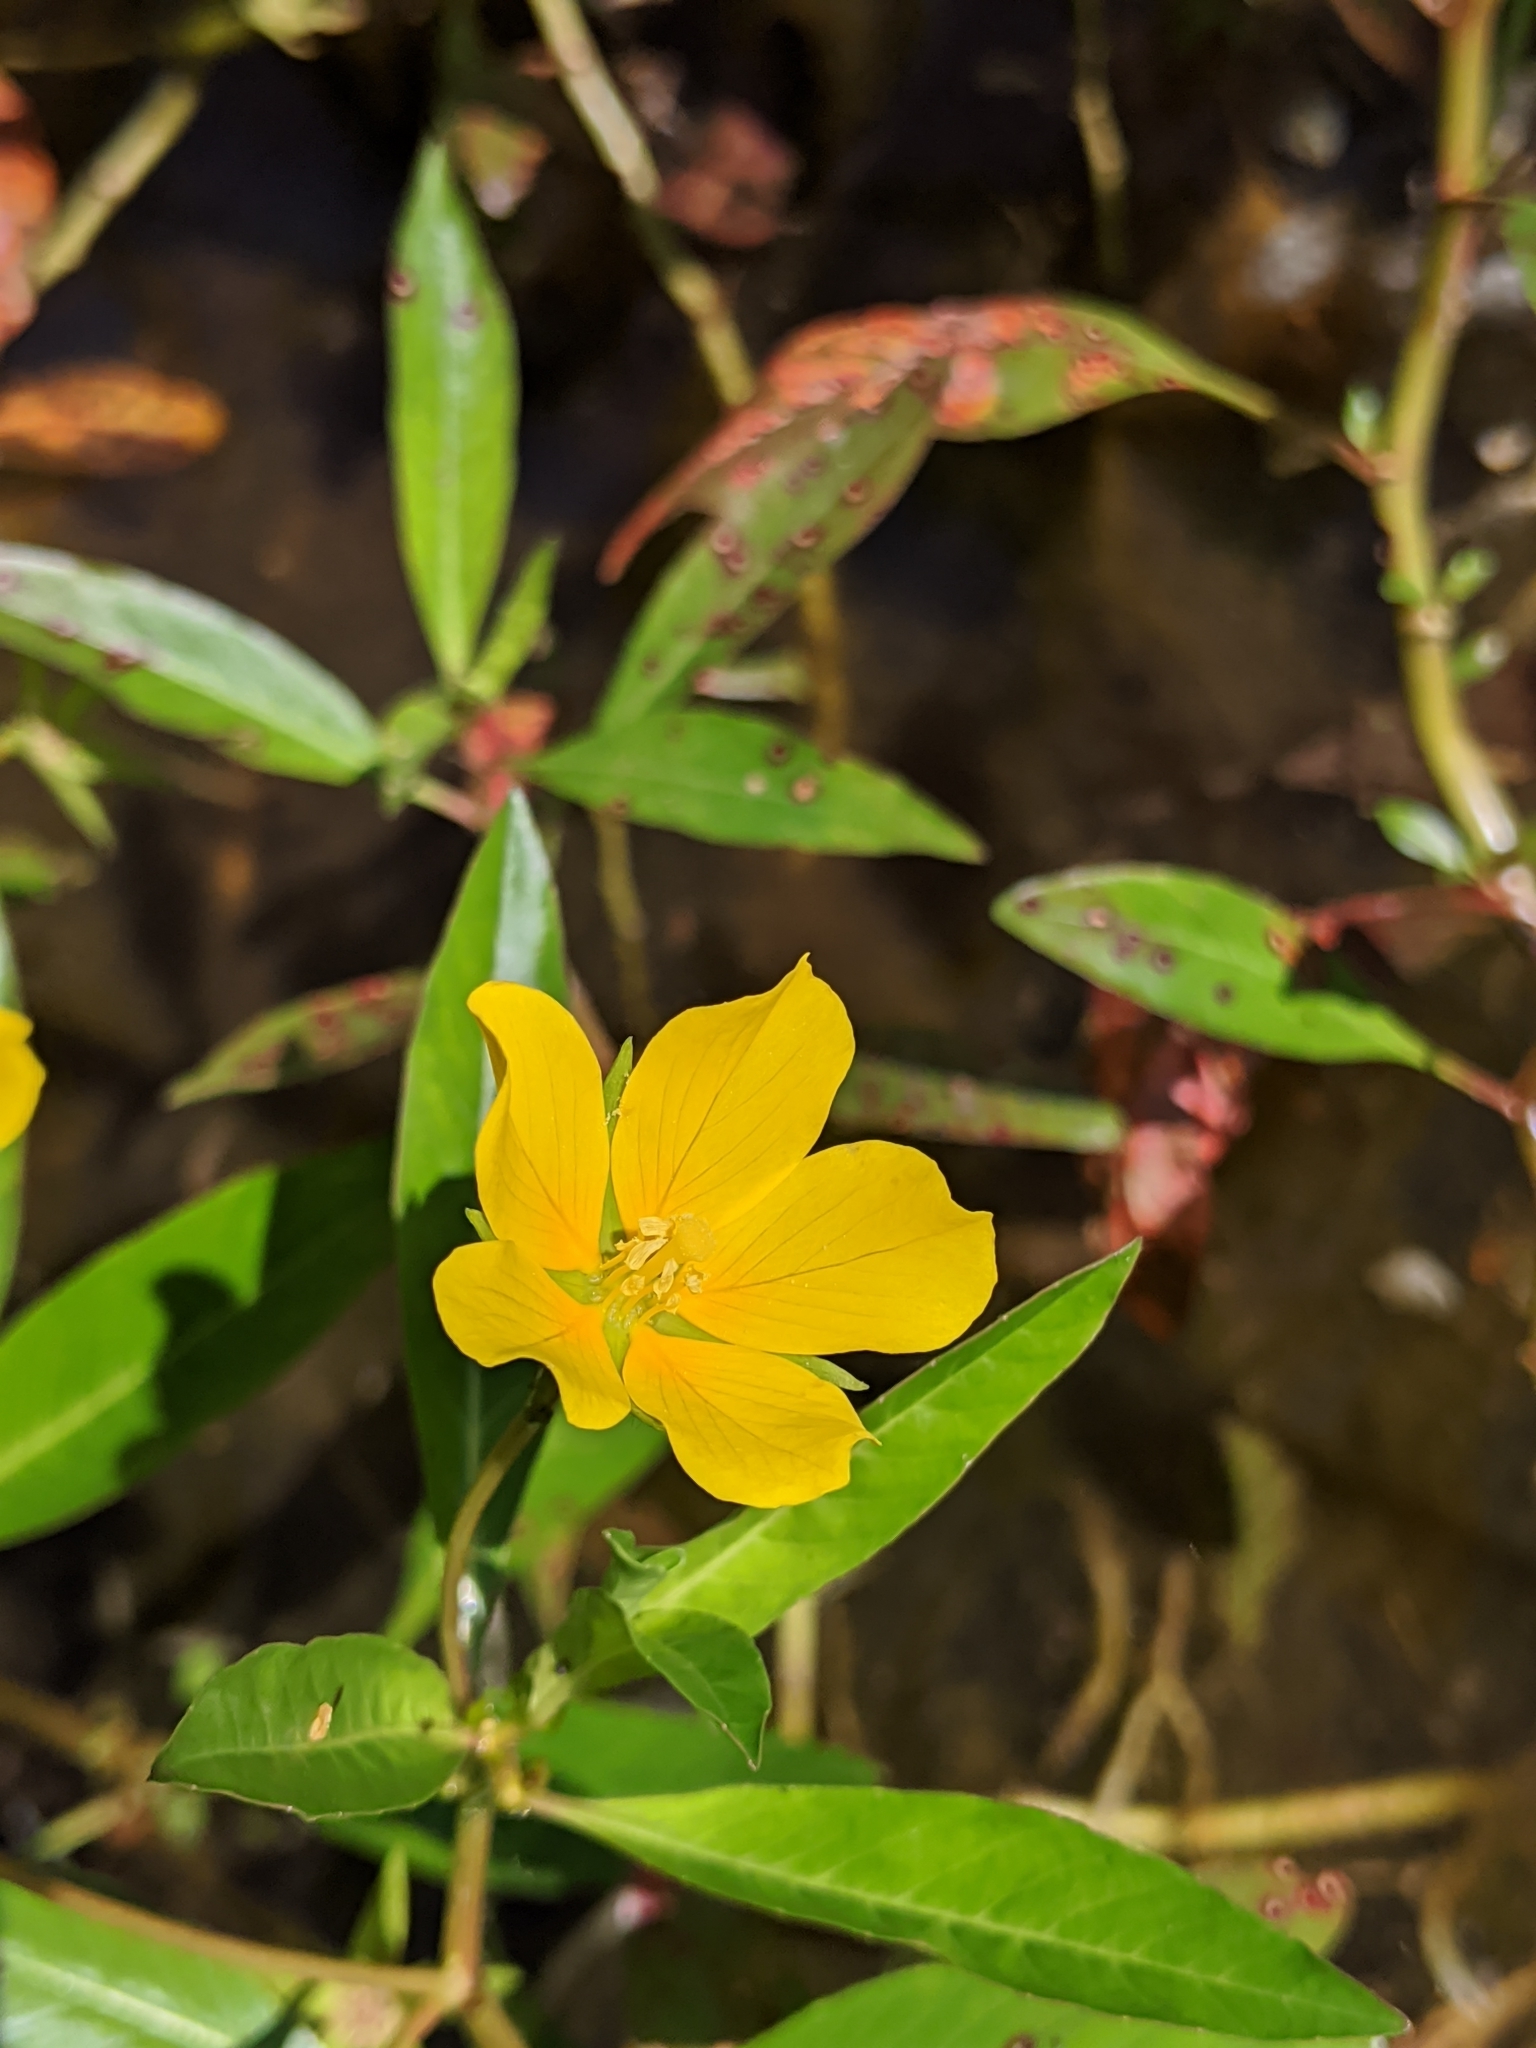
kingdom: Plantae
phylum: Tracheophyta
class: Magnoliopsida
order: Myrtales
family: Onagraceae
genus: Ludwigia
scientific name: Ludwigia peploides
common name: Floating primrose-willow
